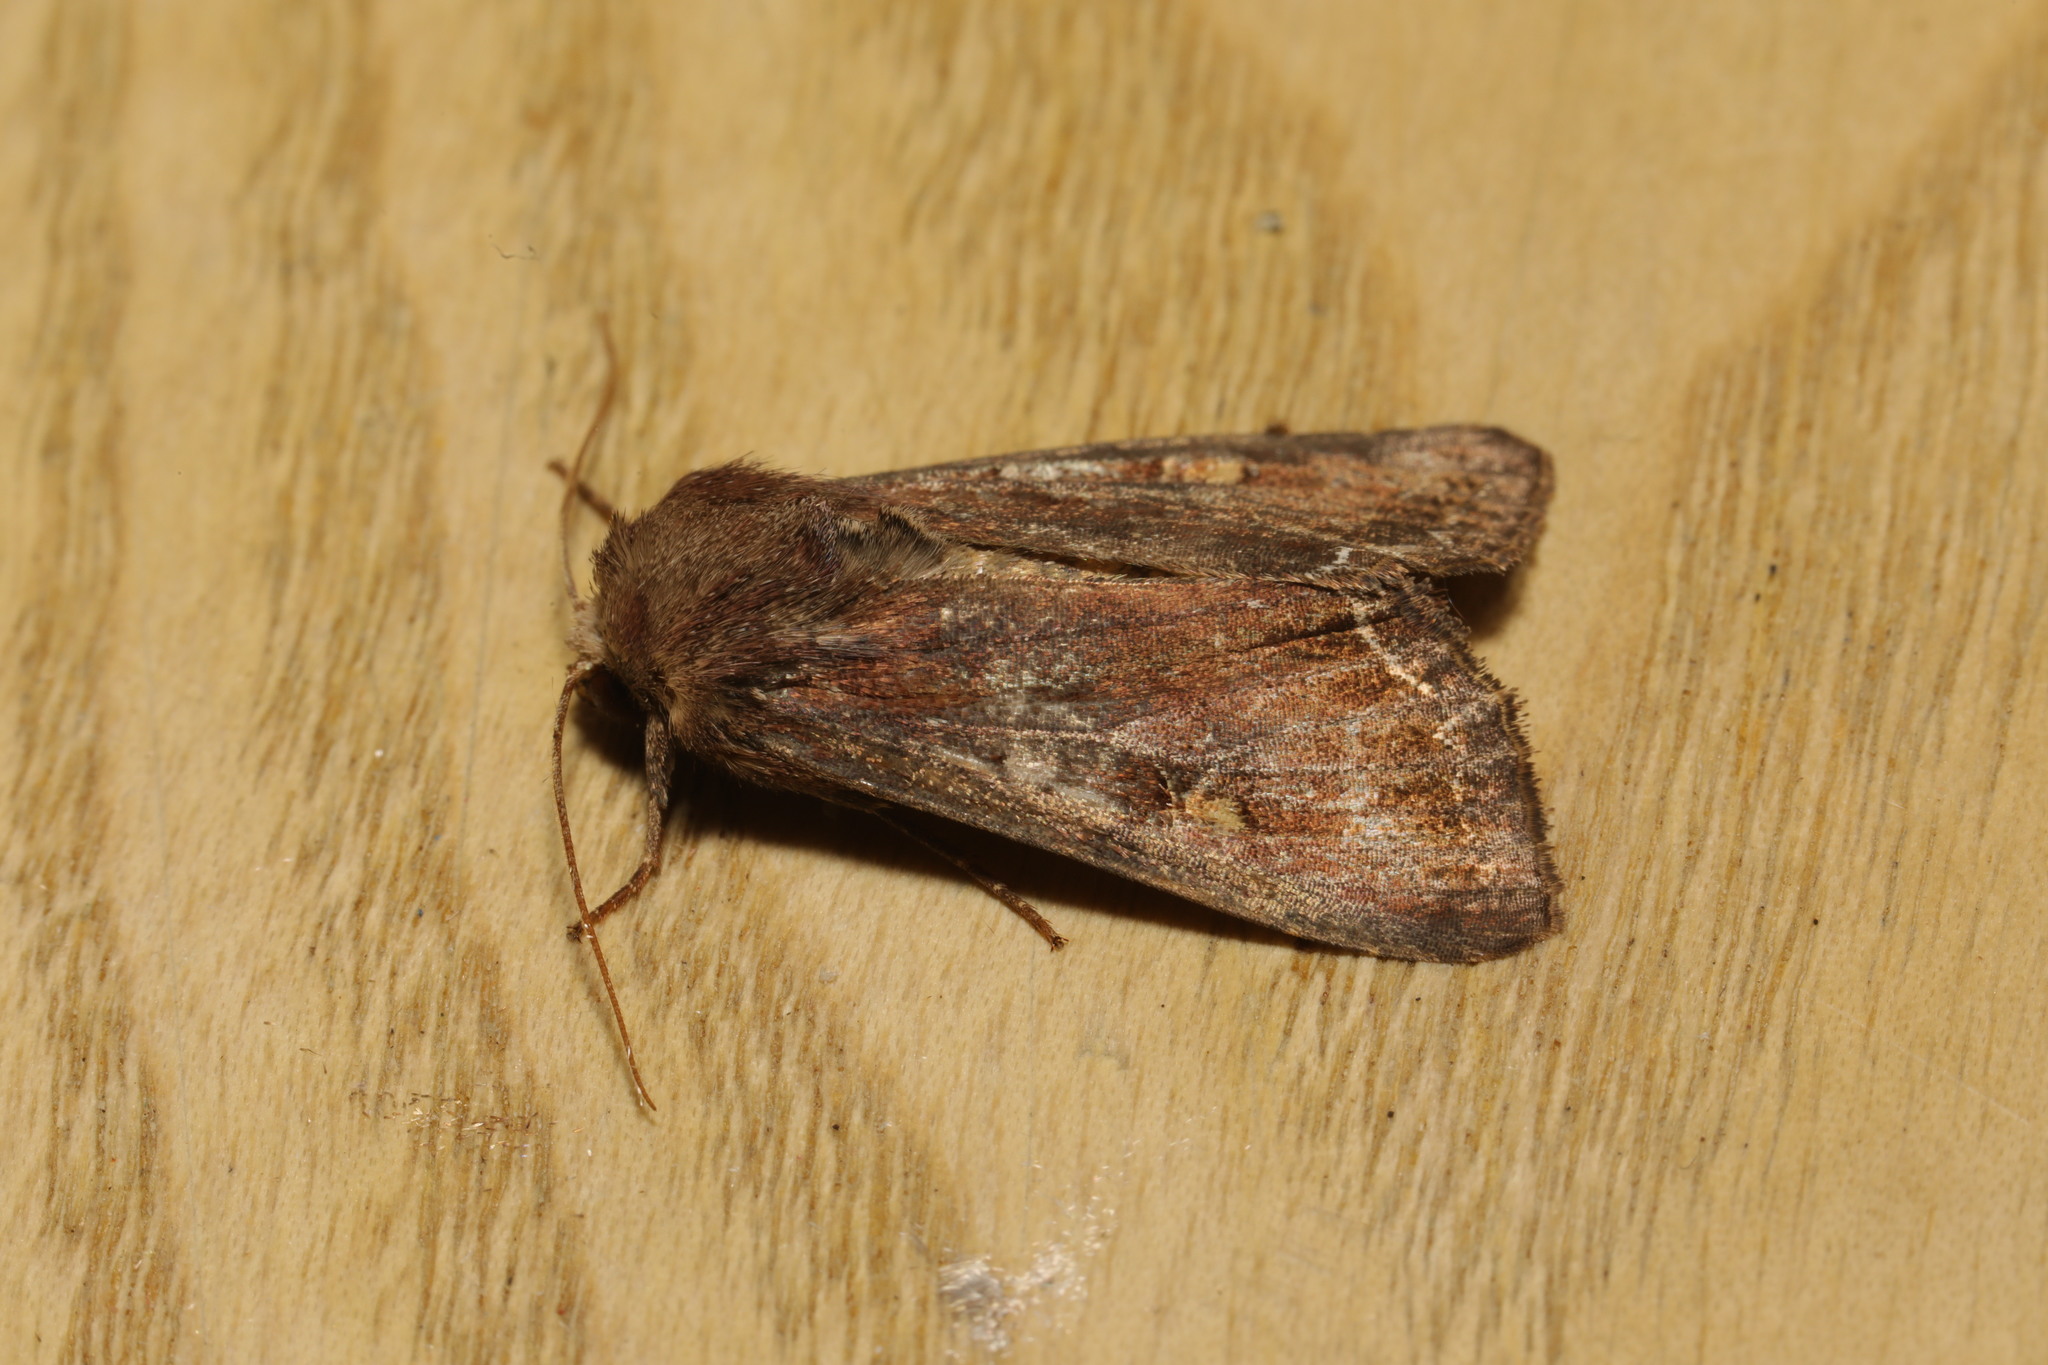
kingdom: Animalia
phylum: Arthropoda
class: Insecta
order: Lepidoptera
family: Noctuidae
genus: Lacanobia
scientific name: Lacanobia oleracea
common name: Bright-line brown-eye
